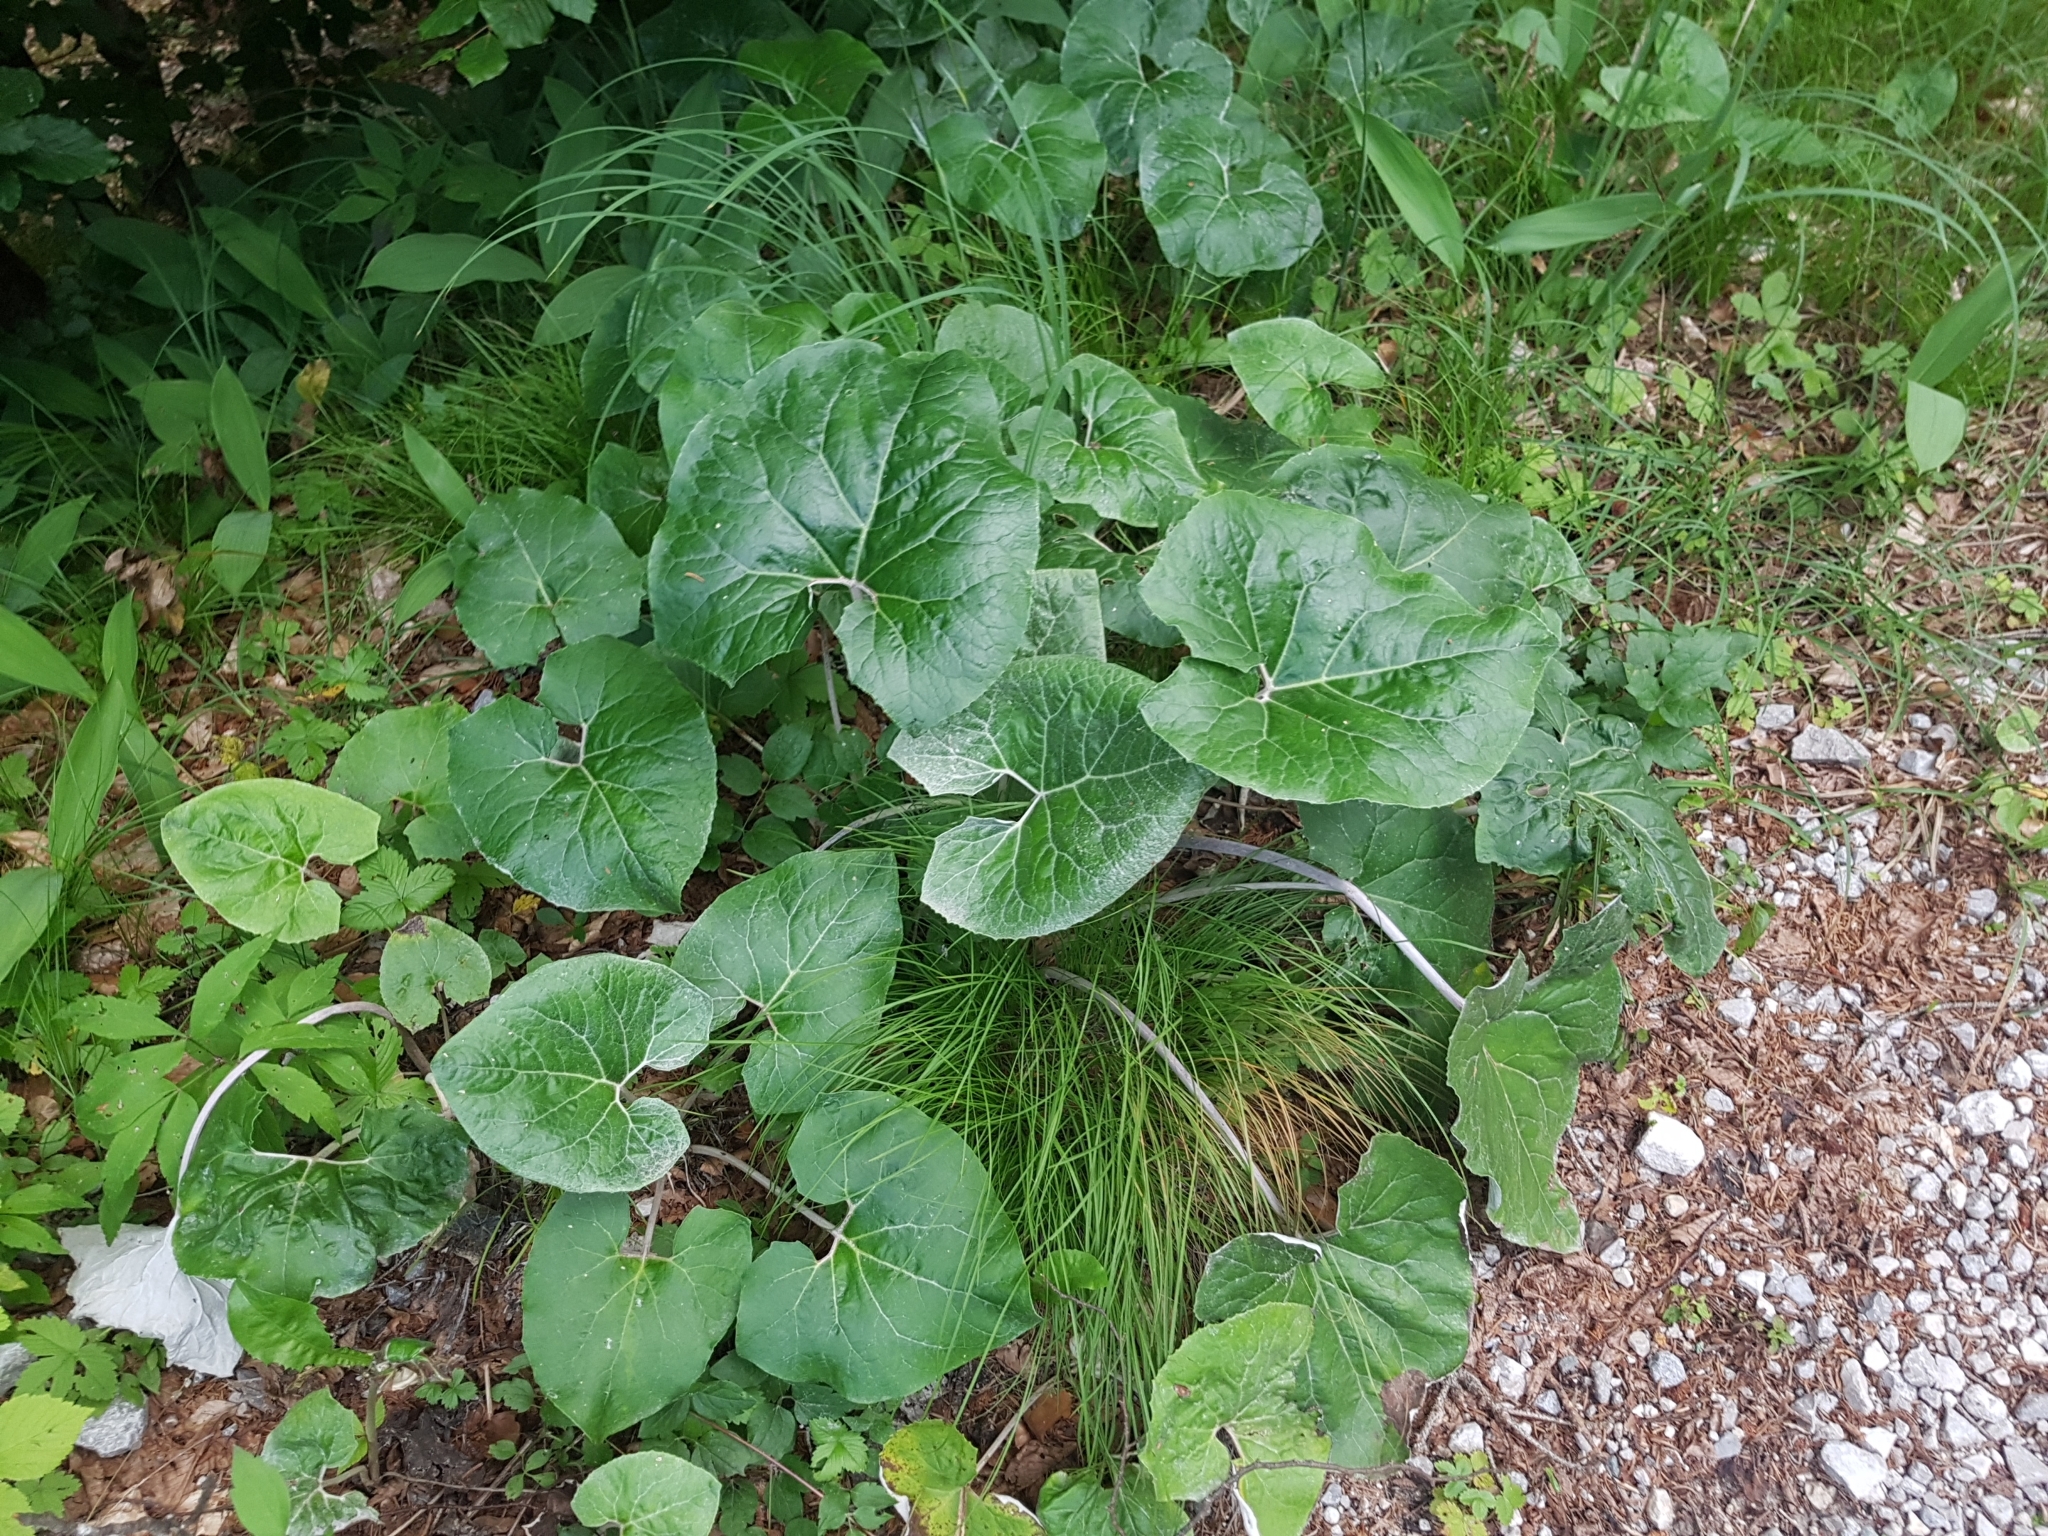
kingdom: Plantae
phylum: Tracheophyta
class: Magnoliopsida
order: Asterales
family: Asteraceae
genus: Petasites
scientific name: Petasites paradoxus
